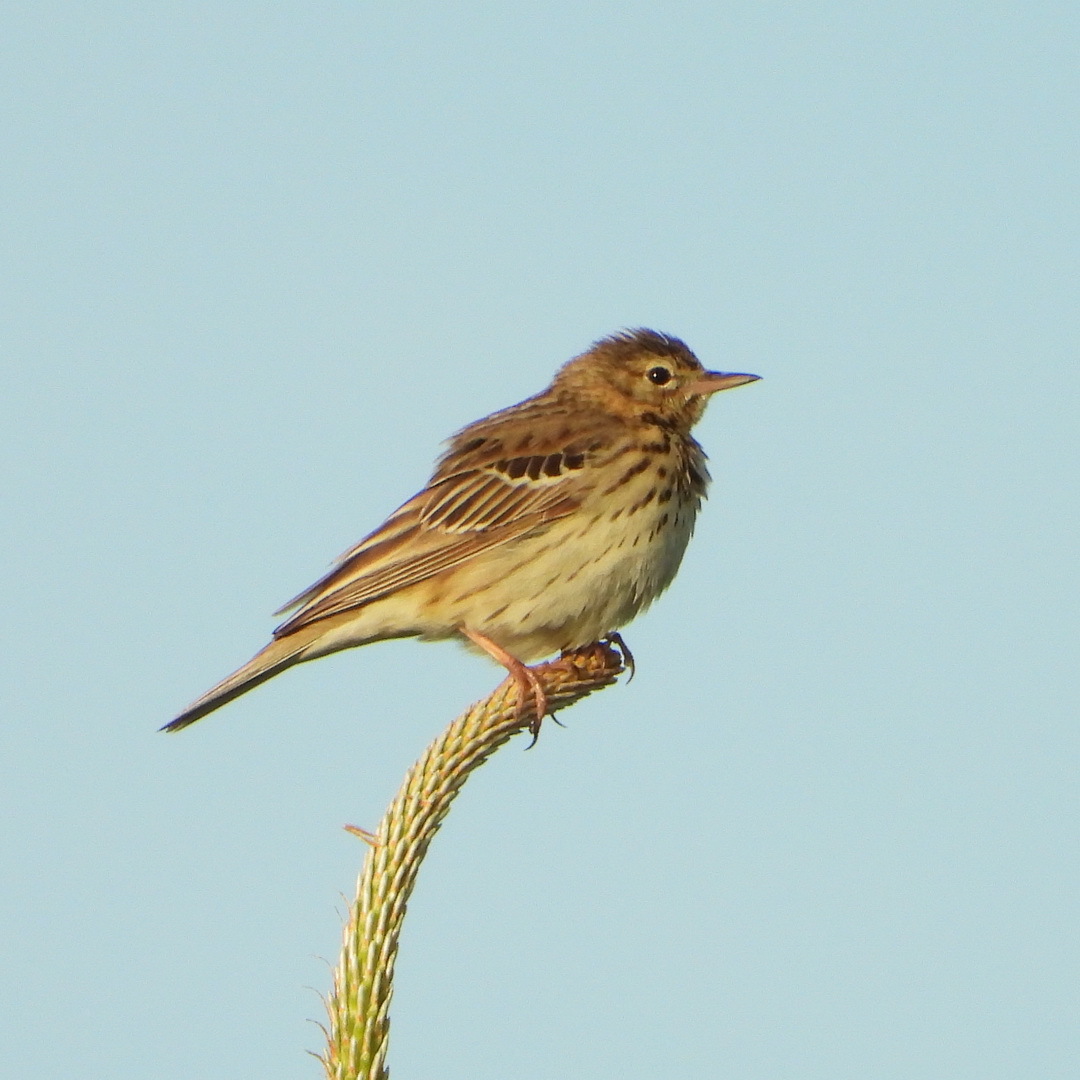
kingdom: Animalia
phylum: Chordata
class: Aves
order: Passeriformes
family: Motacillidae
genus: Anthus
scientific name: Anthus trivialis
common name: Tree pipit
